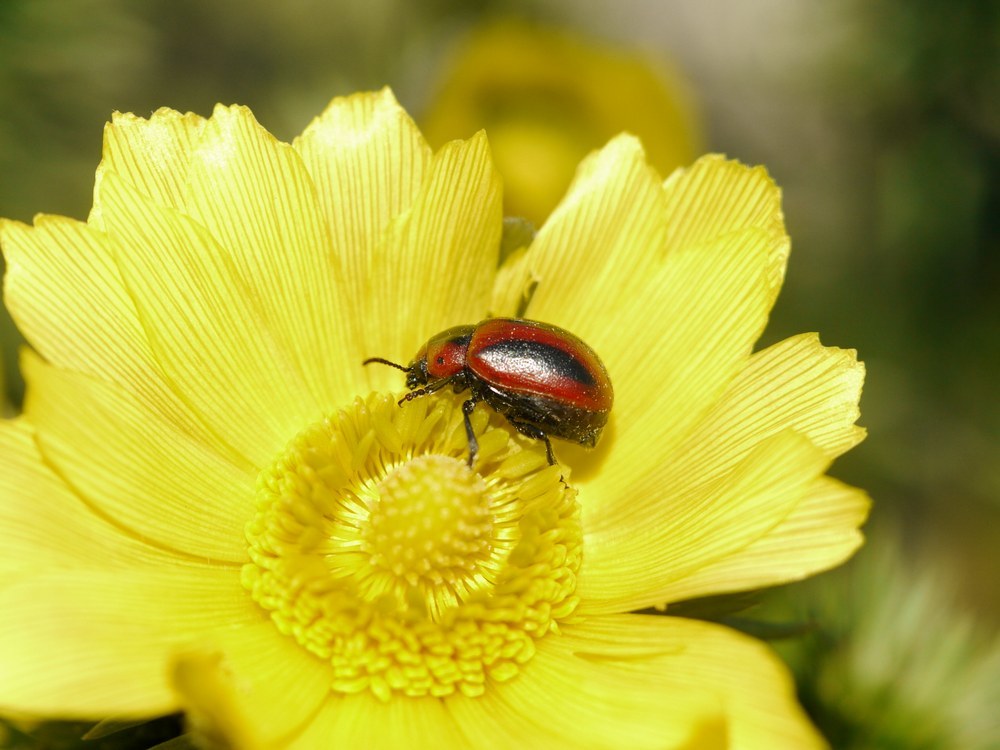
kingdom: Animalia
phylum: Arthropoda
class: Insecta
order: Coleoptera
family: Chrysomelidae
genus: Entomoscelis
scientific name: Entomoscelis adonidis
